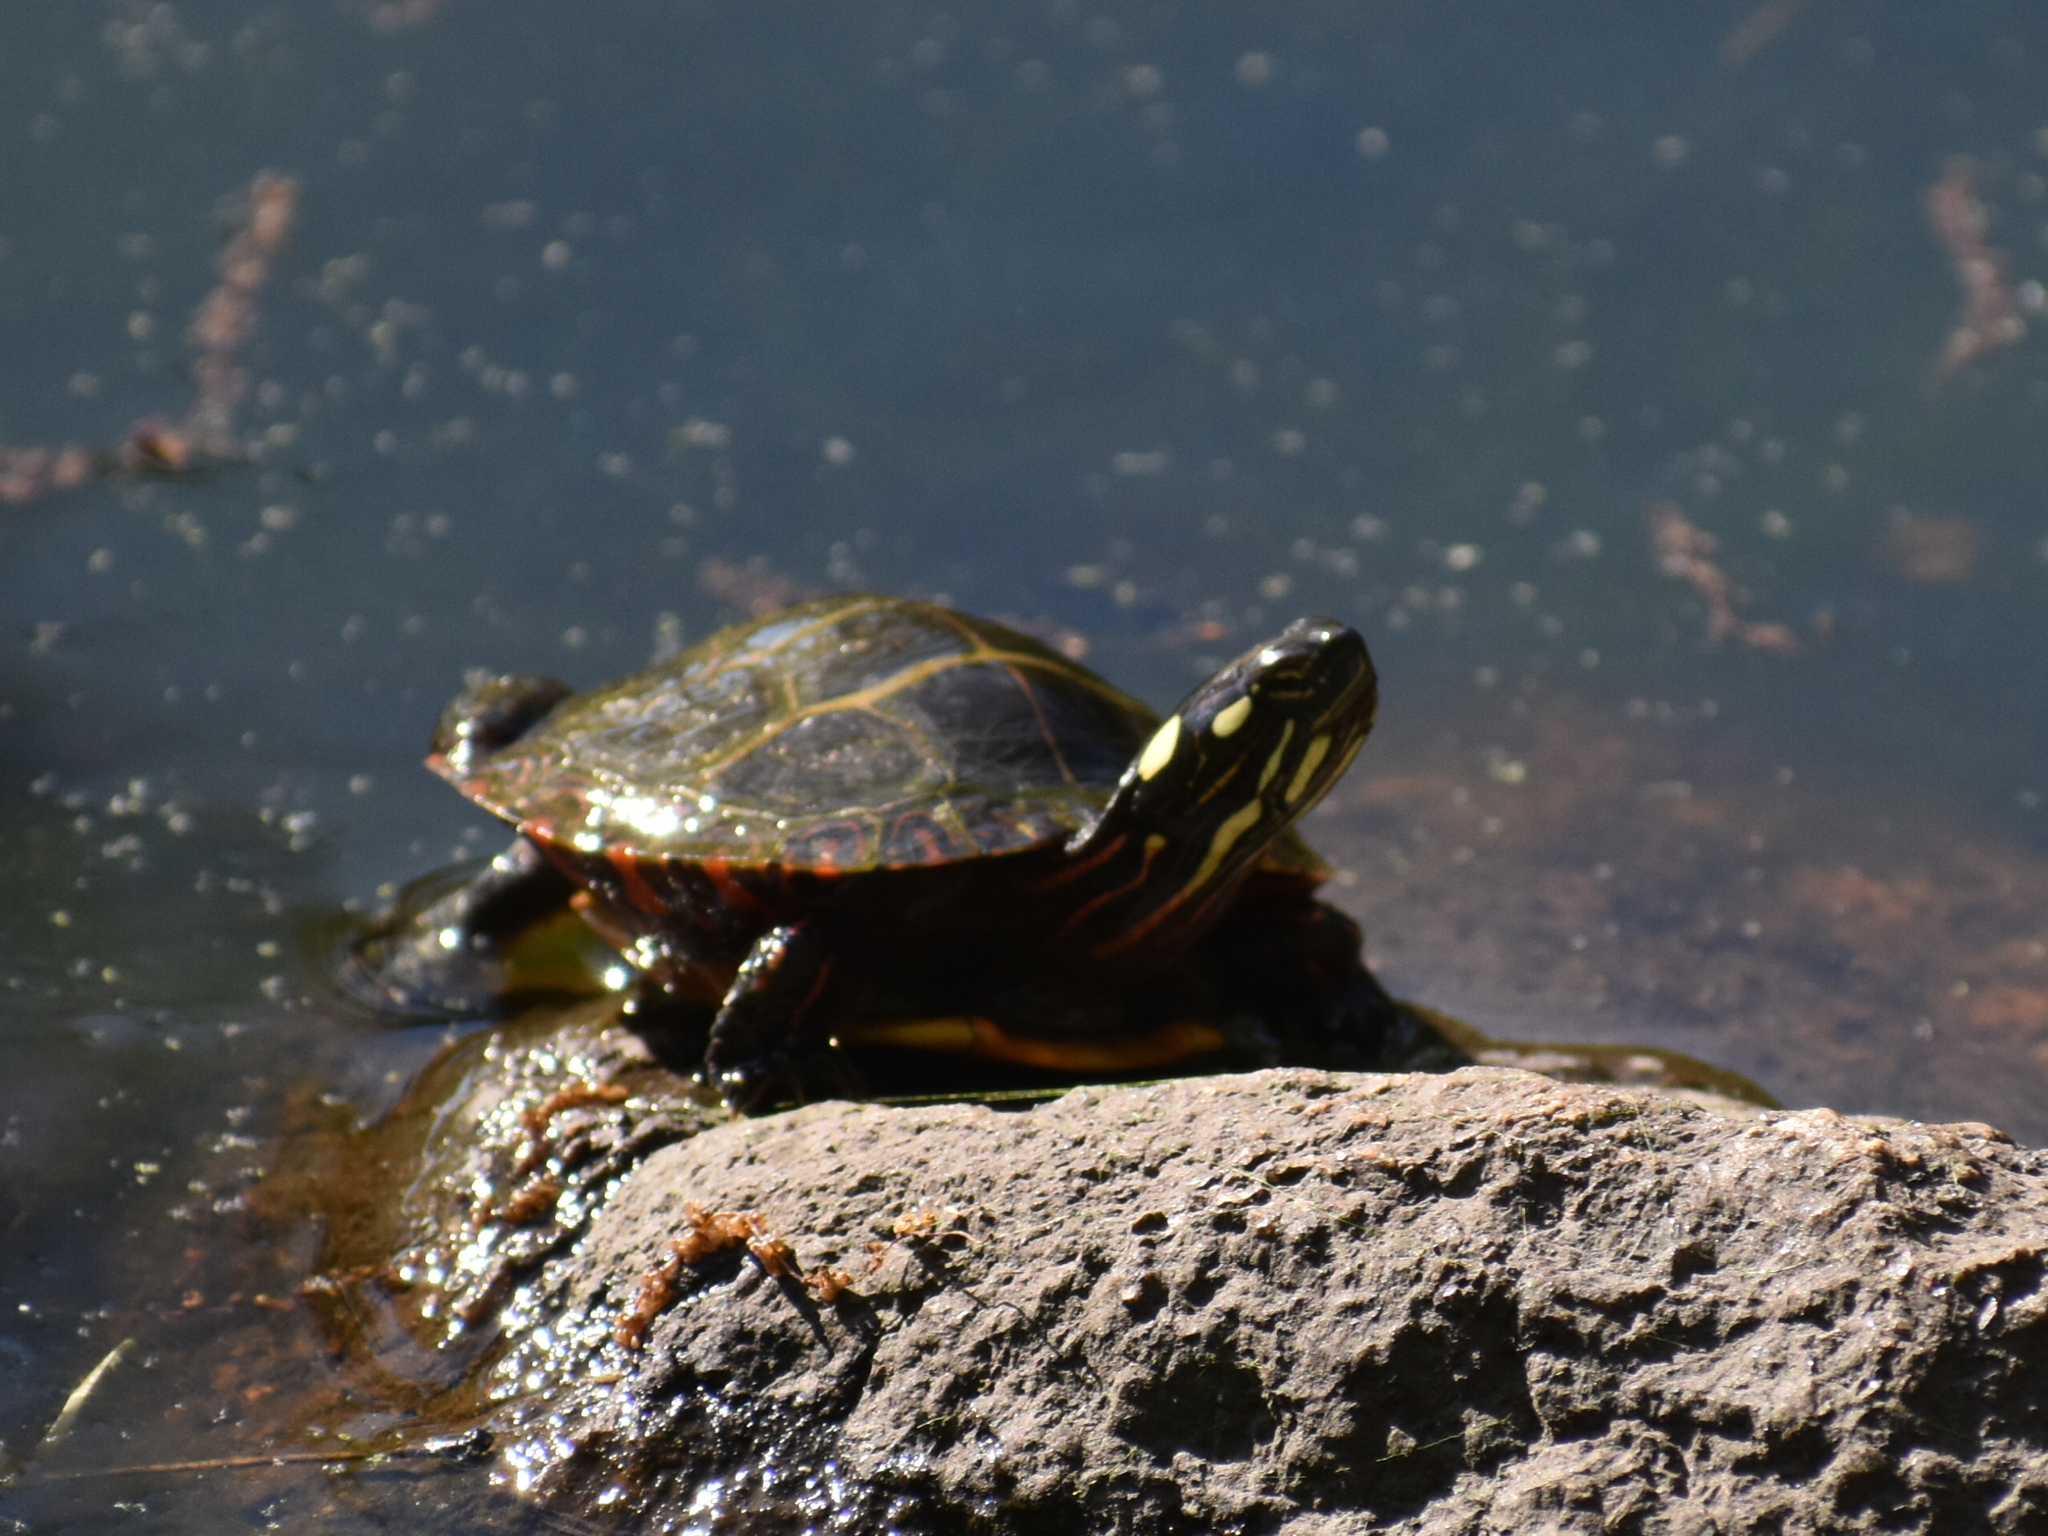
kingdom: Animalia
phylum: Chordata
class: Testudines
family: Emydidae
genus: Chrysemys
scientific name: Chrysemys picta
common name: Painted turtle
